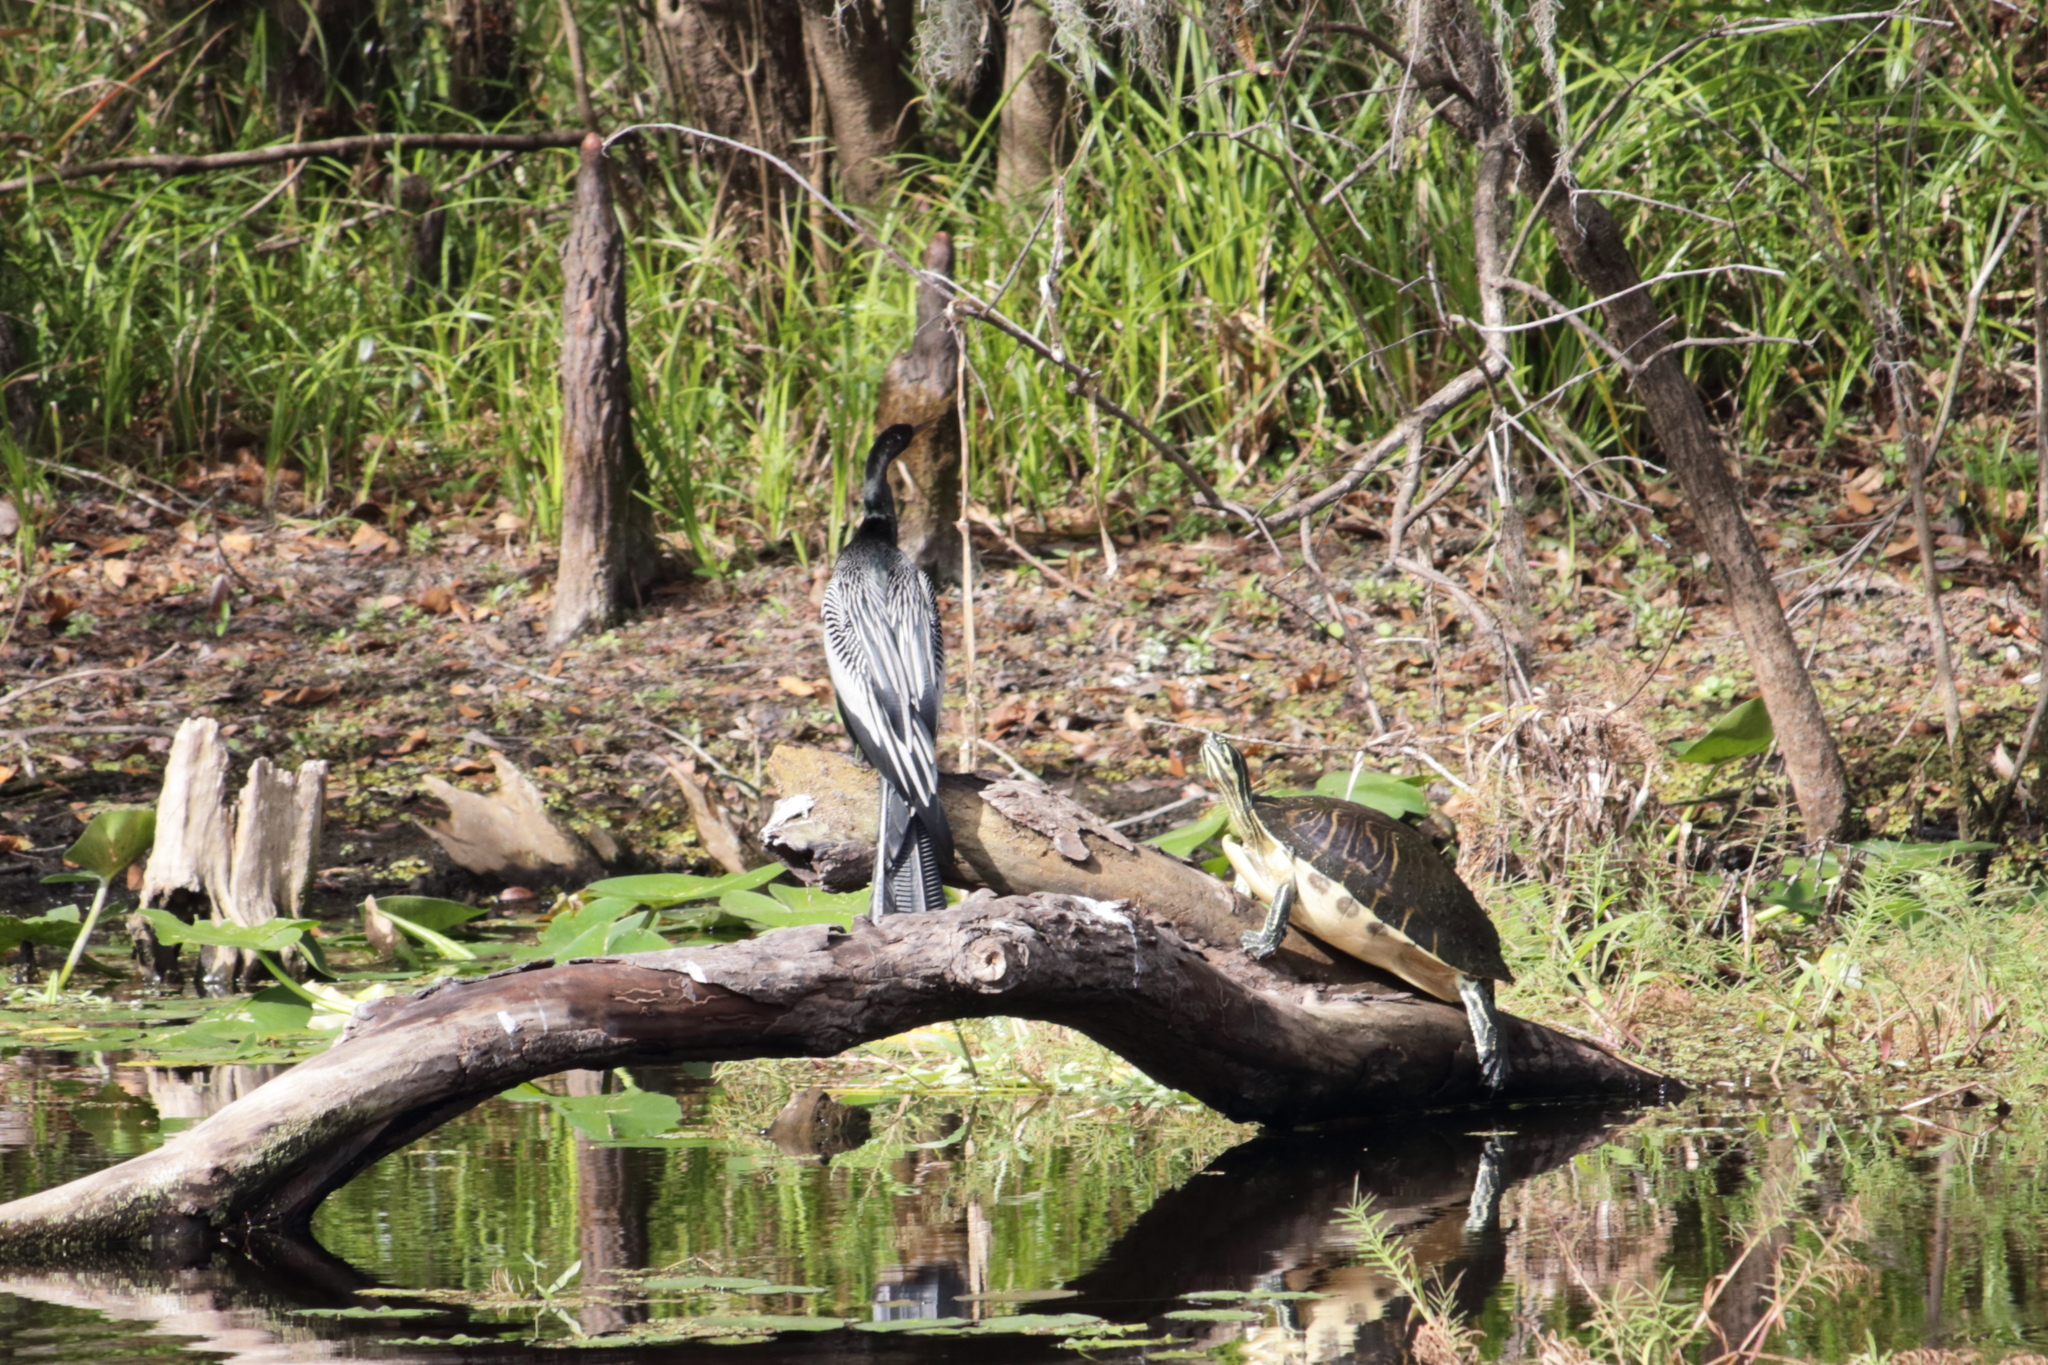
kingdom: Animalia
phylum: Chordata
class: Aves
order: Suliformes
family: Anhingidae
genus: Anhinga
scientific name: Anhinga anhinga
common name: Anhinga
